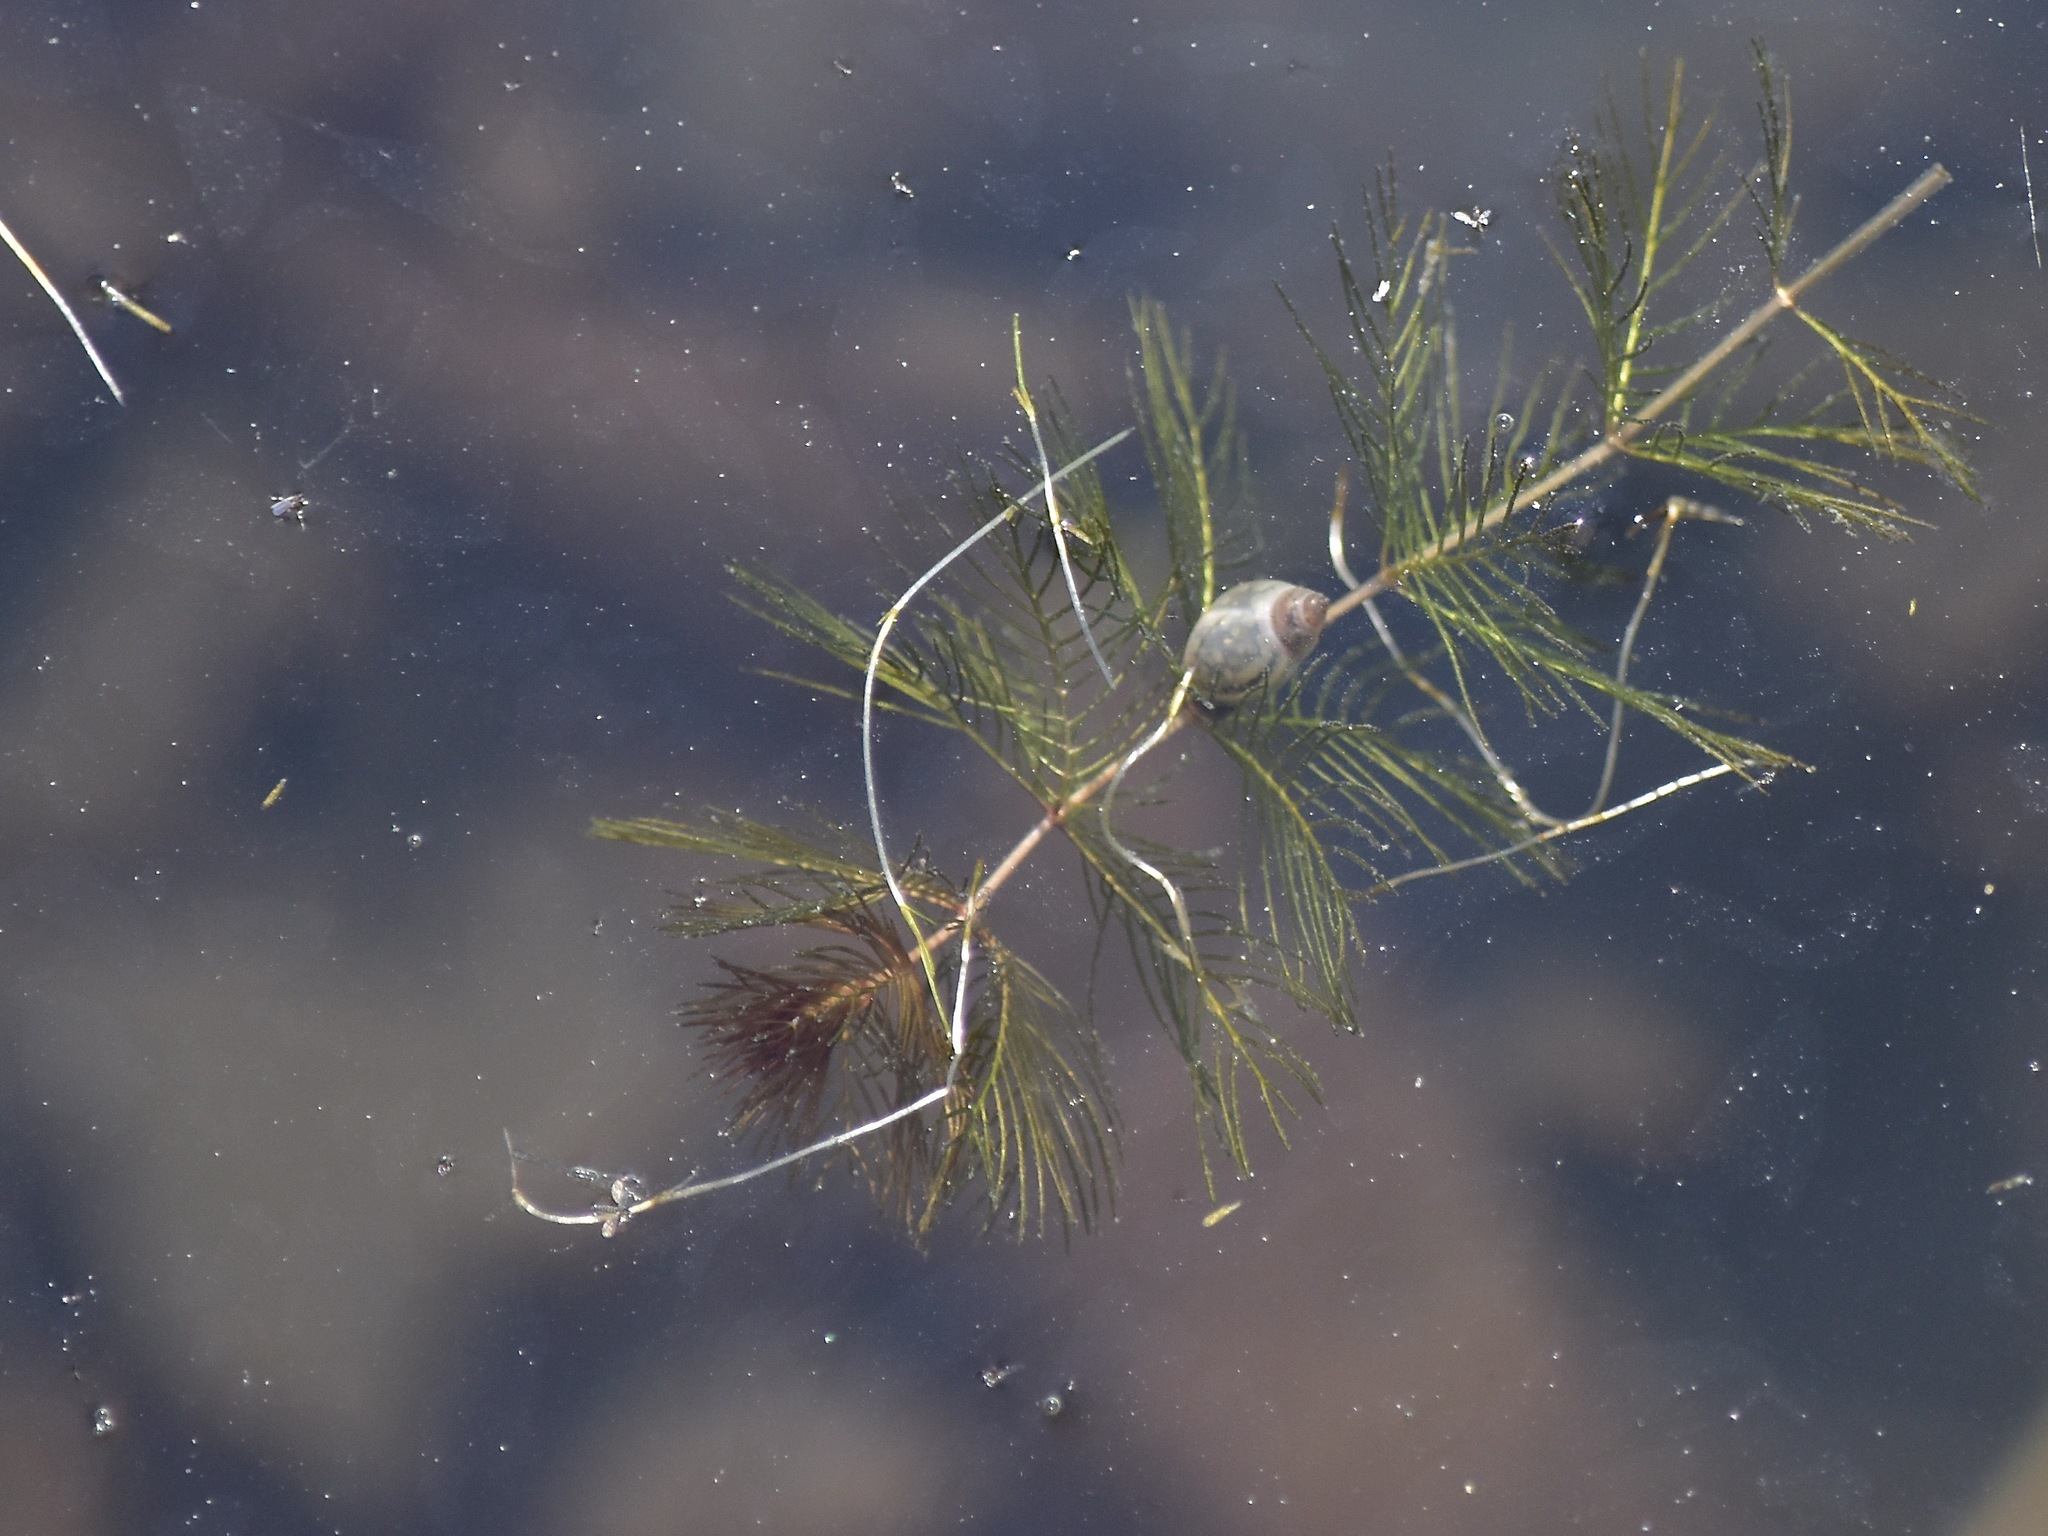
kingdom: Animalia
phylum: Mollusca
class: Gastropoda
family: Physidae
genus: Physella
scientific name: Physella acuta
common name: European physa
